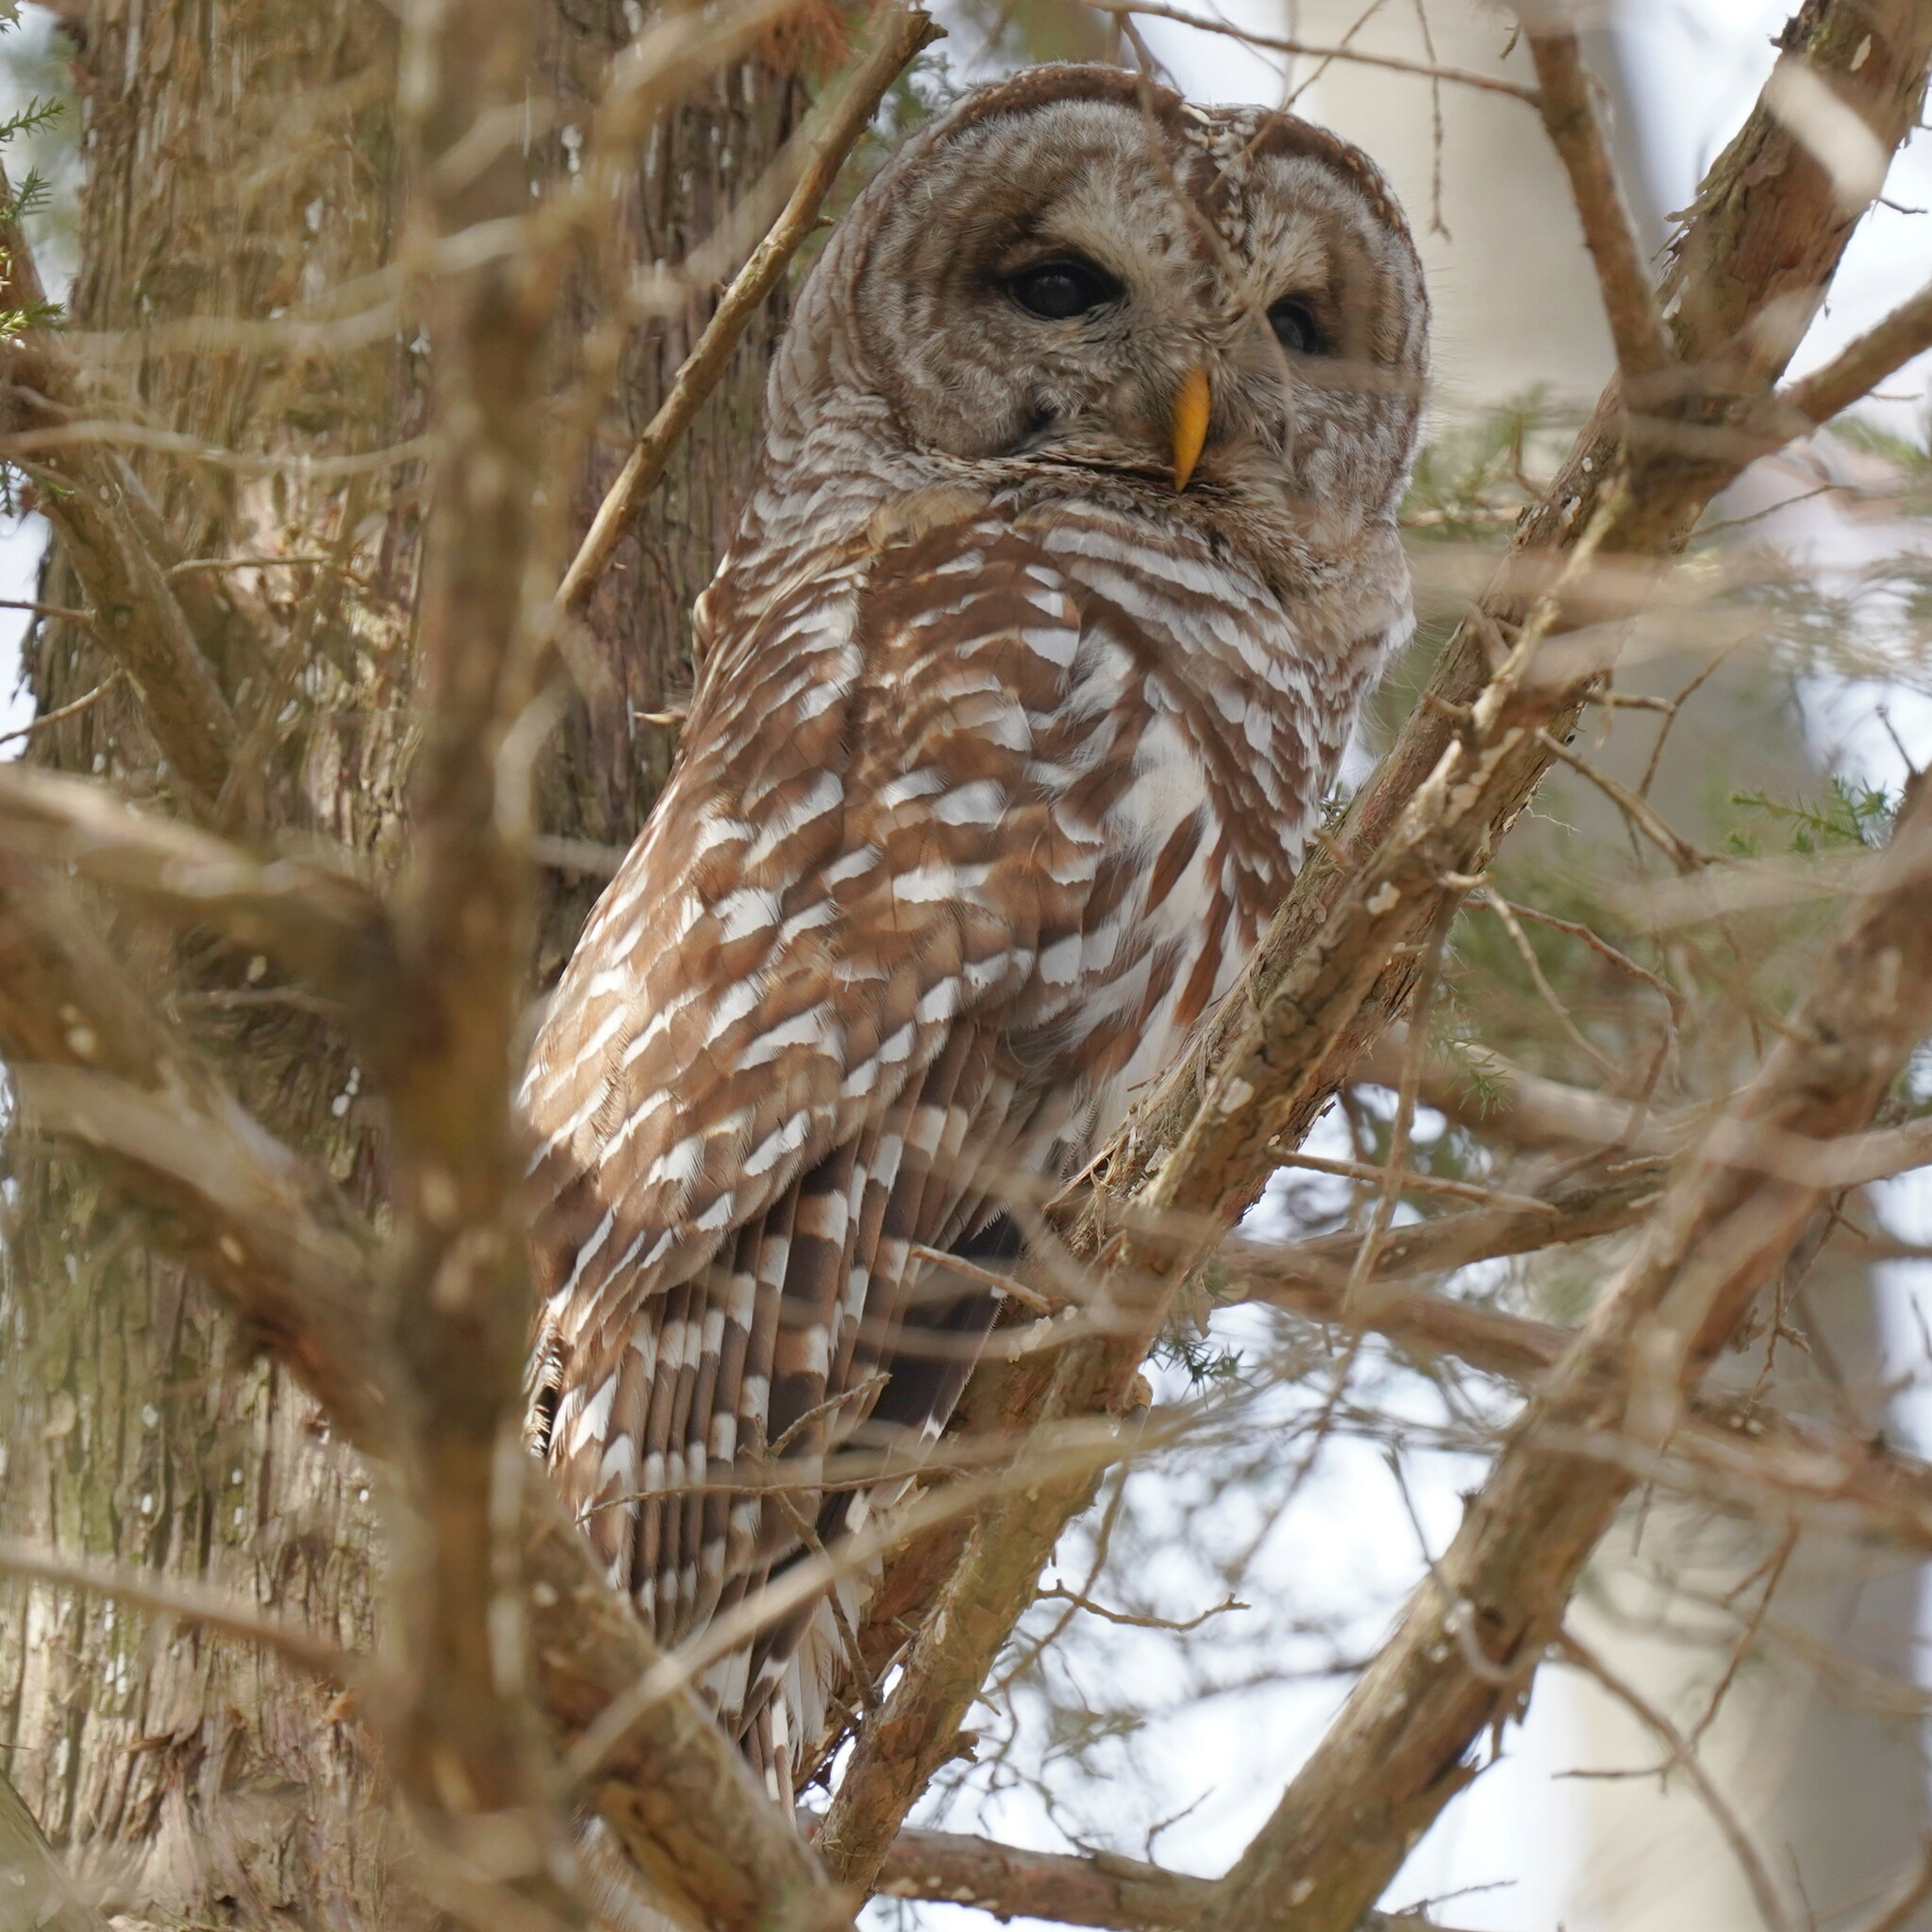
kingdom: Animalia
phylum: Chordata
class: Aves
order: Strigiformes
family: Strigidae
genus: Strix
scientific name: Strix varia
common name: Barred owl
